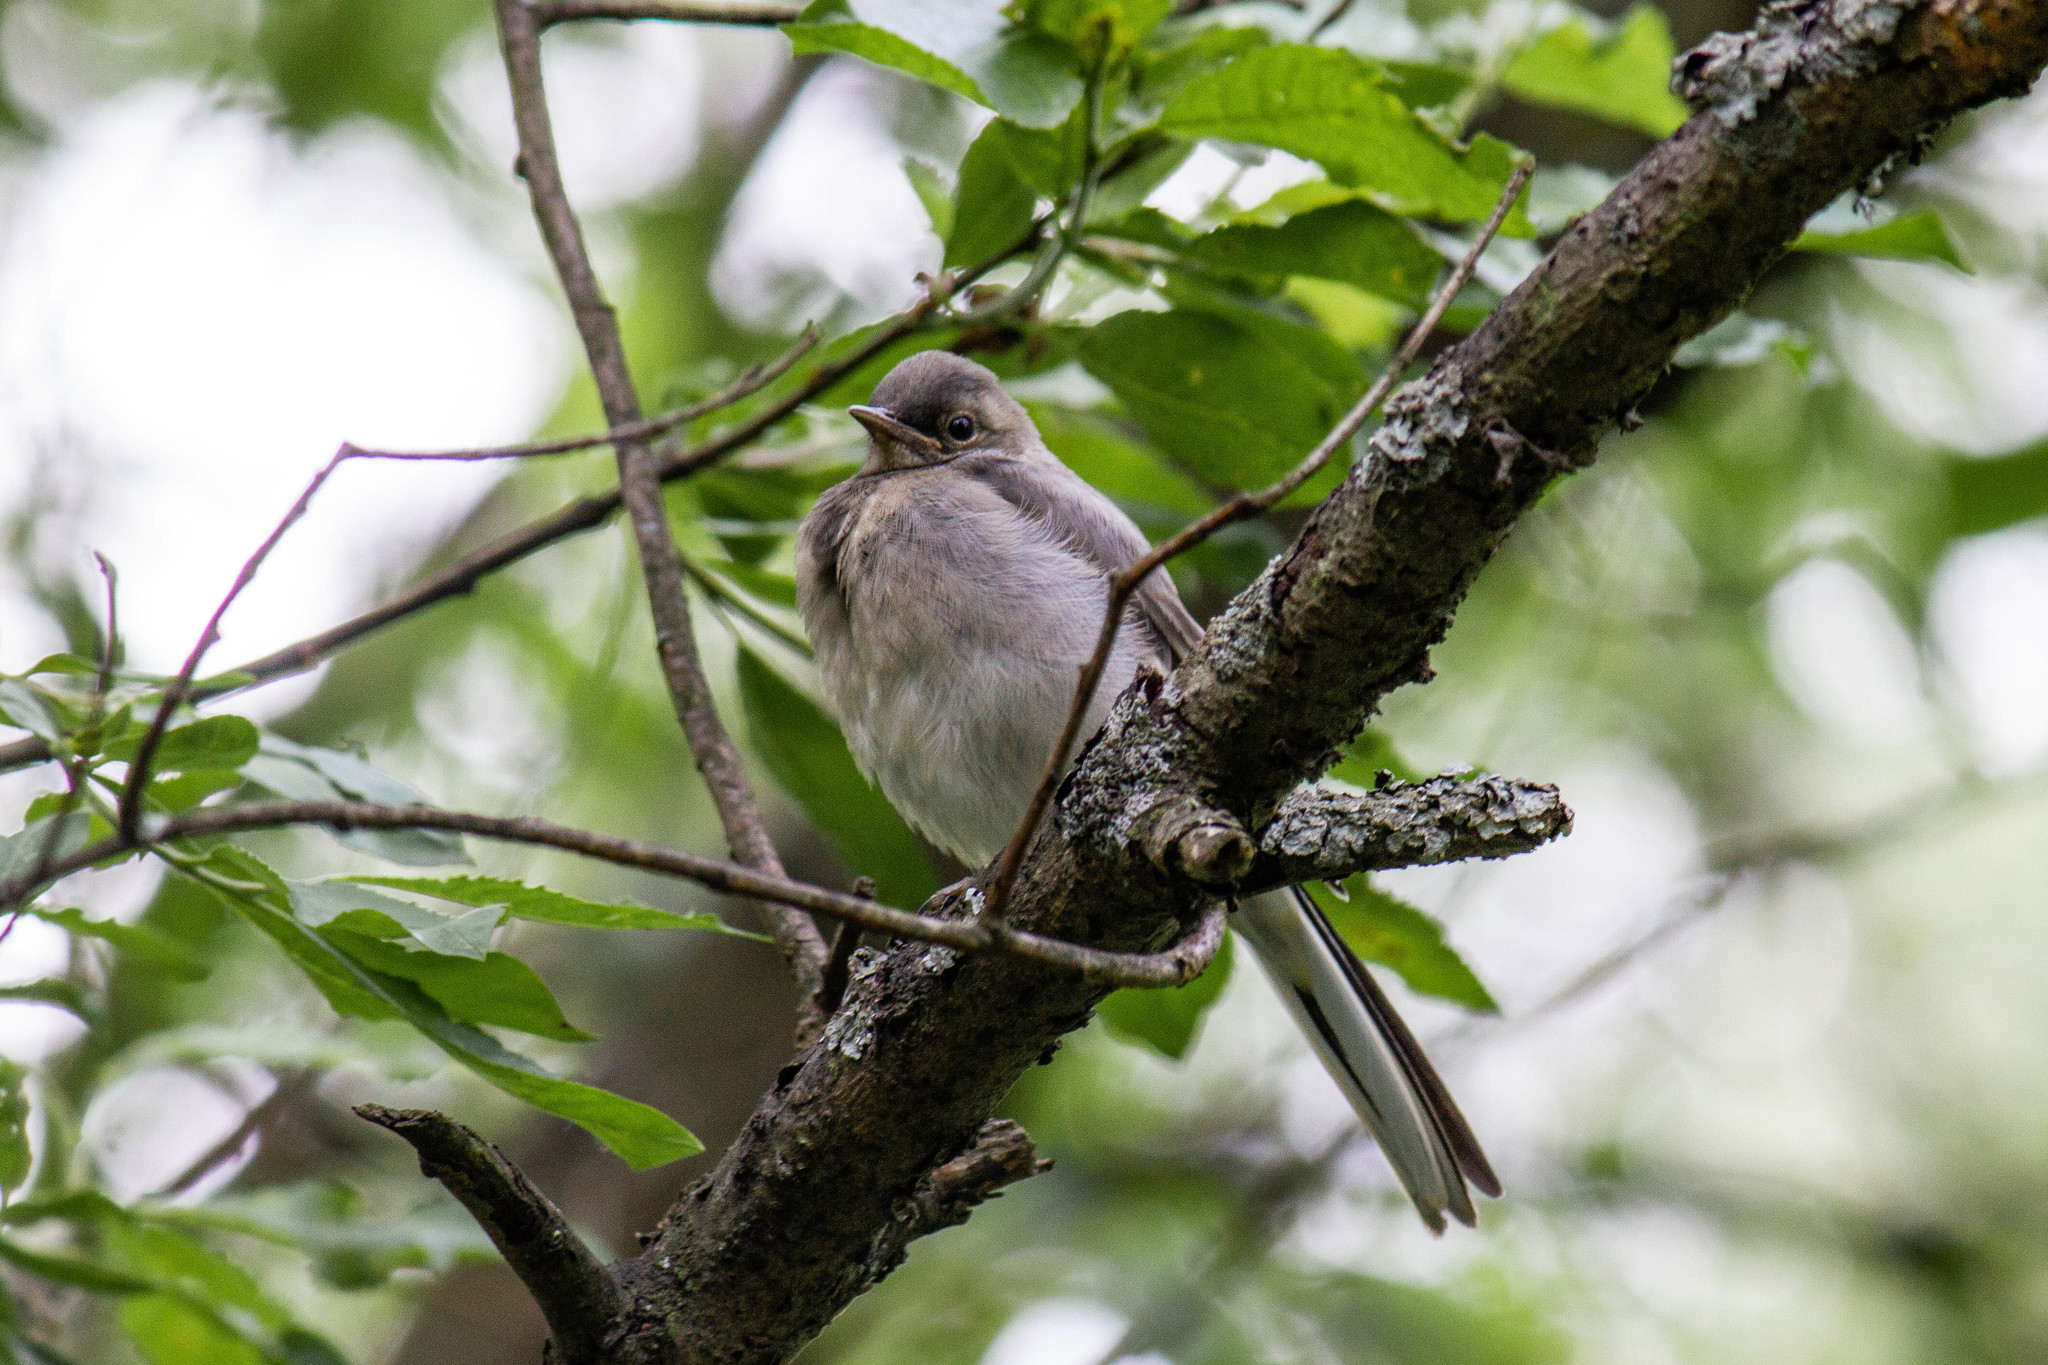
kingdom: Animalia
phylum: Chordata
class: Aves
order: Passeriformes
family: Motacillidae
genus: Motacilla
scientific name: Motacilla alba
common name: White wagtail
